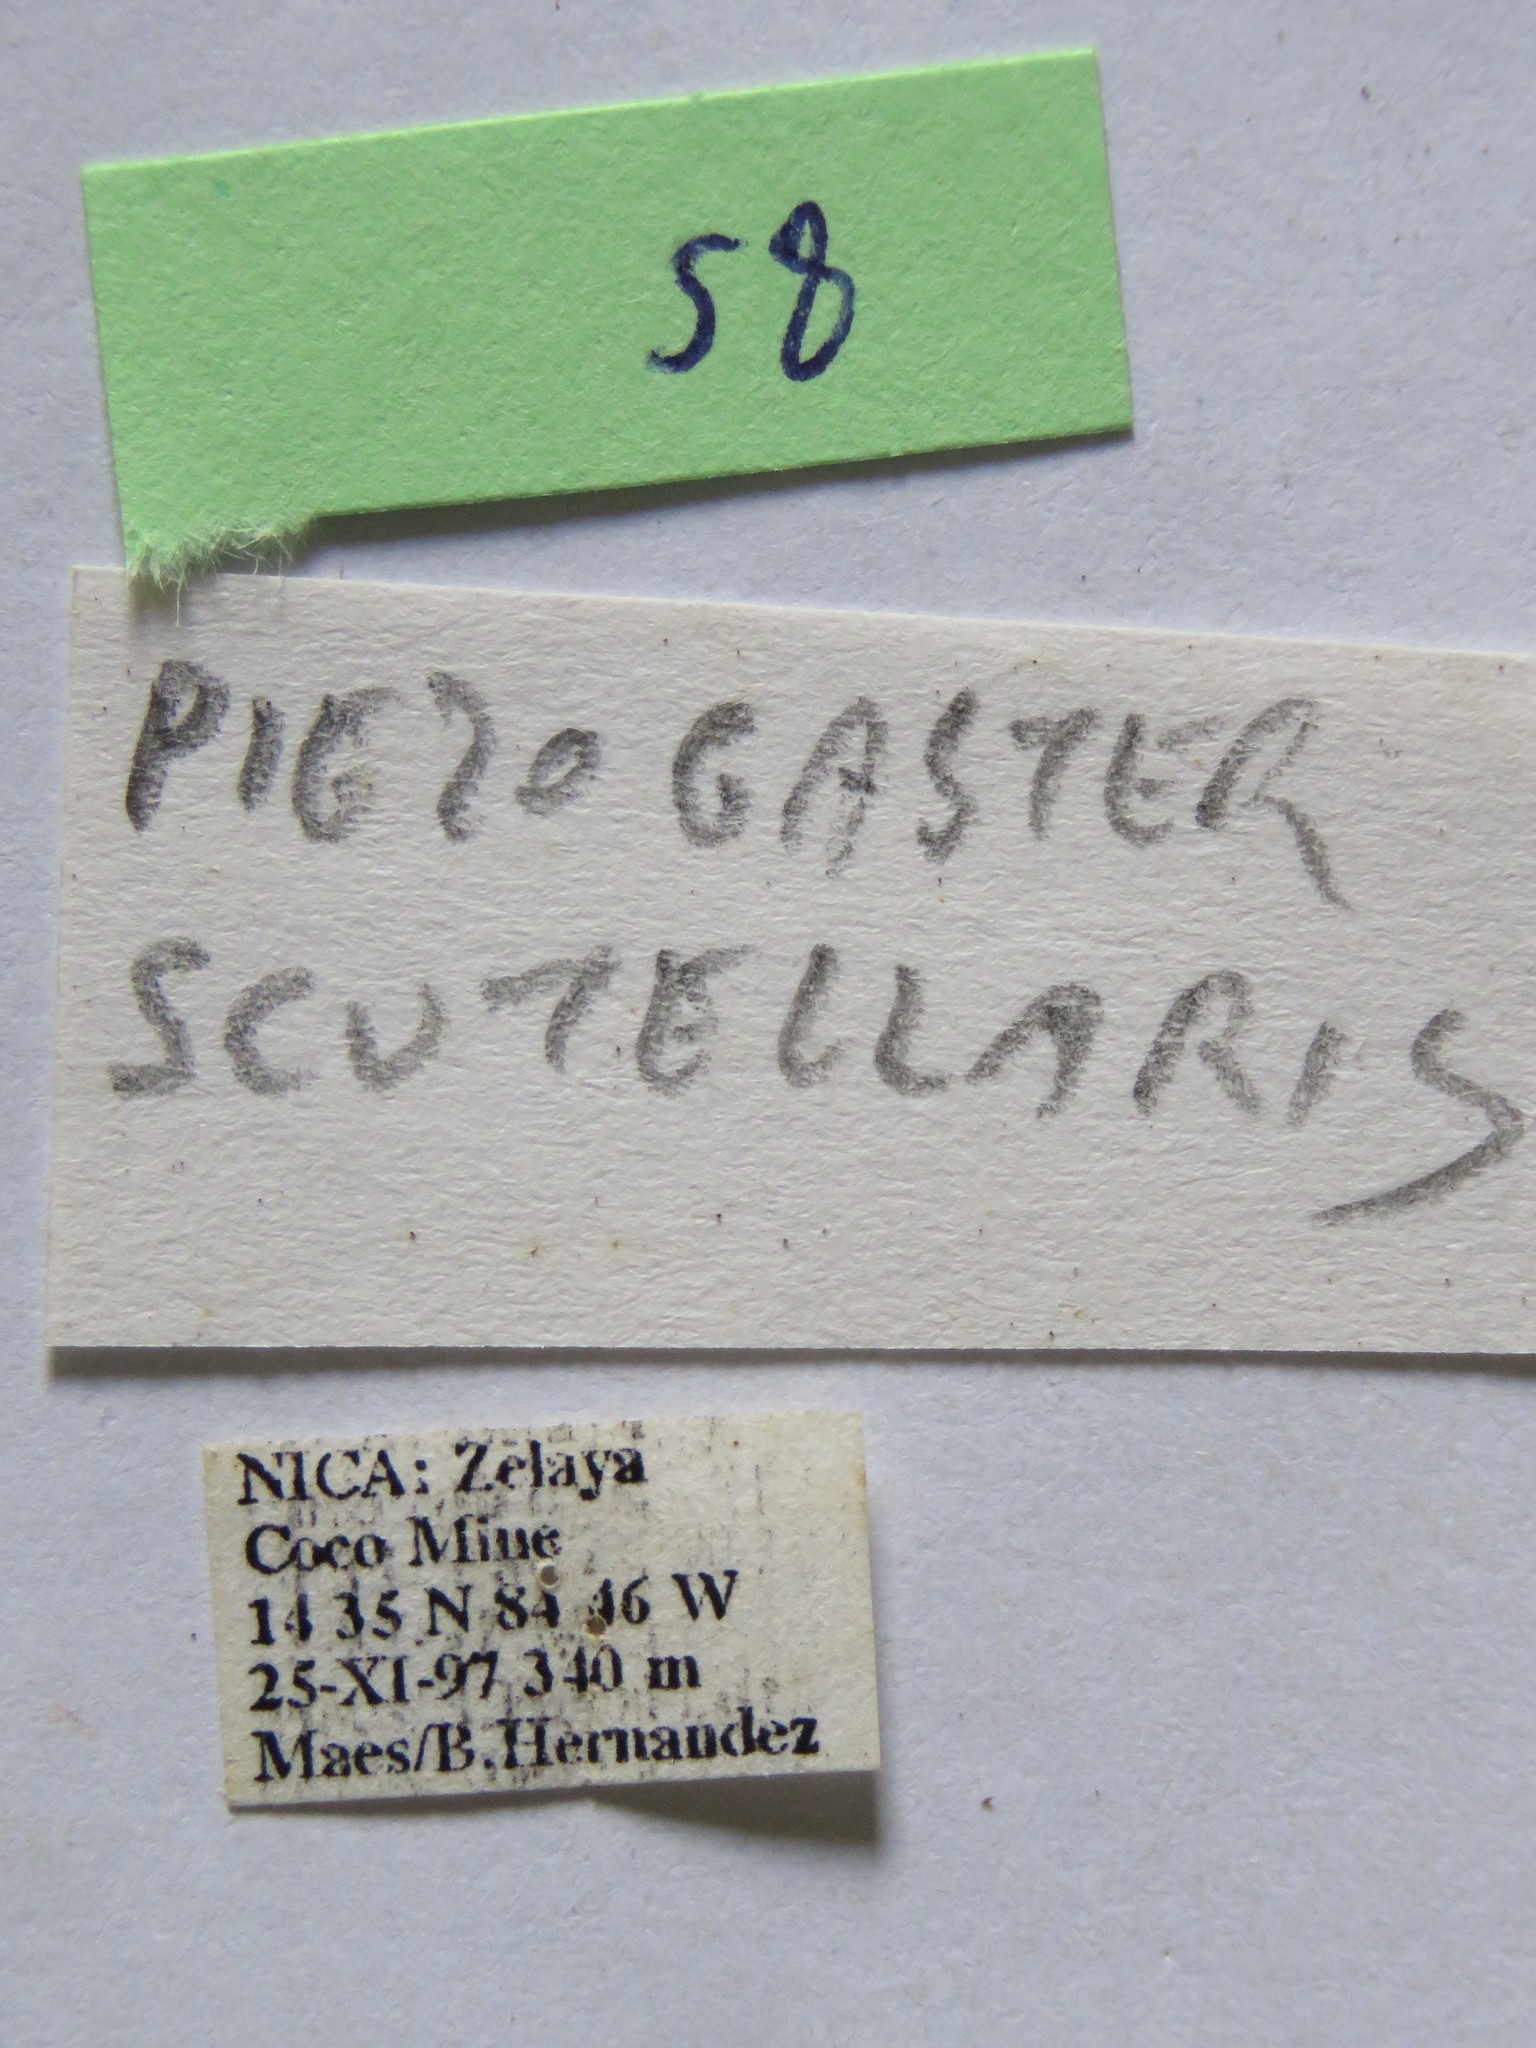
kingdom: Animalia
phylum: Arthropoda
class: Insecta
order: Hemiptera
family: Coreidae
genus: Piezogaster
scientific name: Piezogaster tetricus
